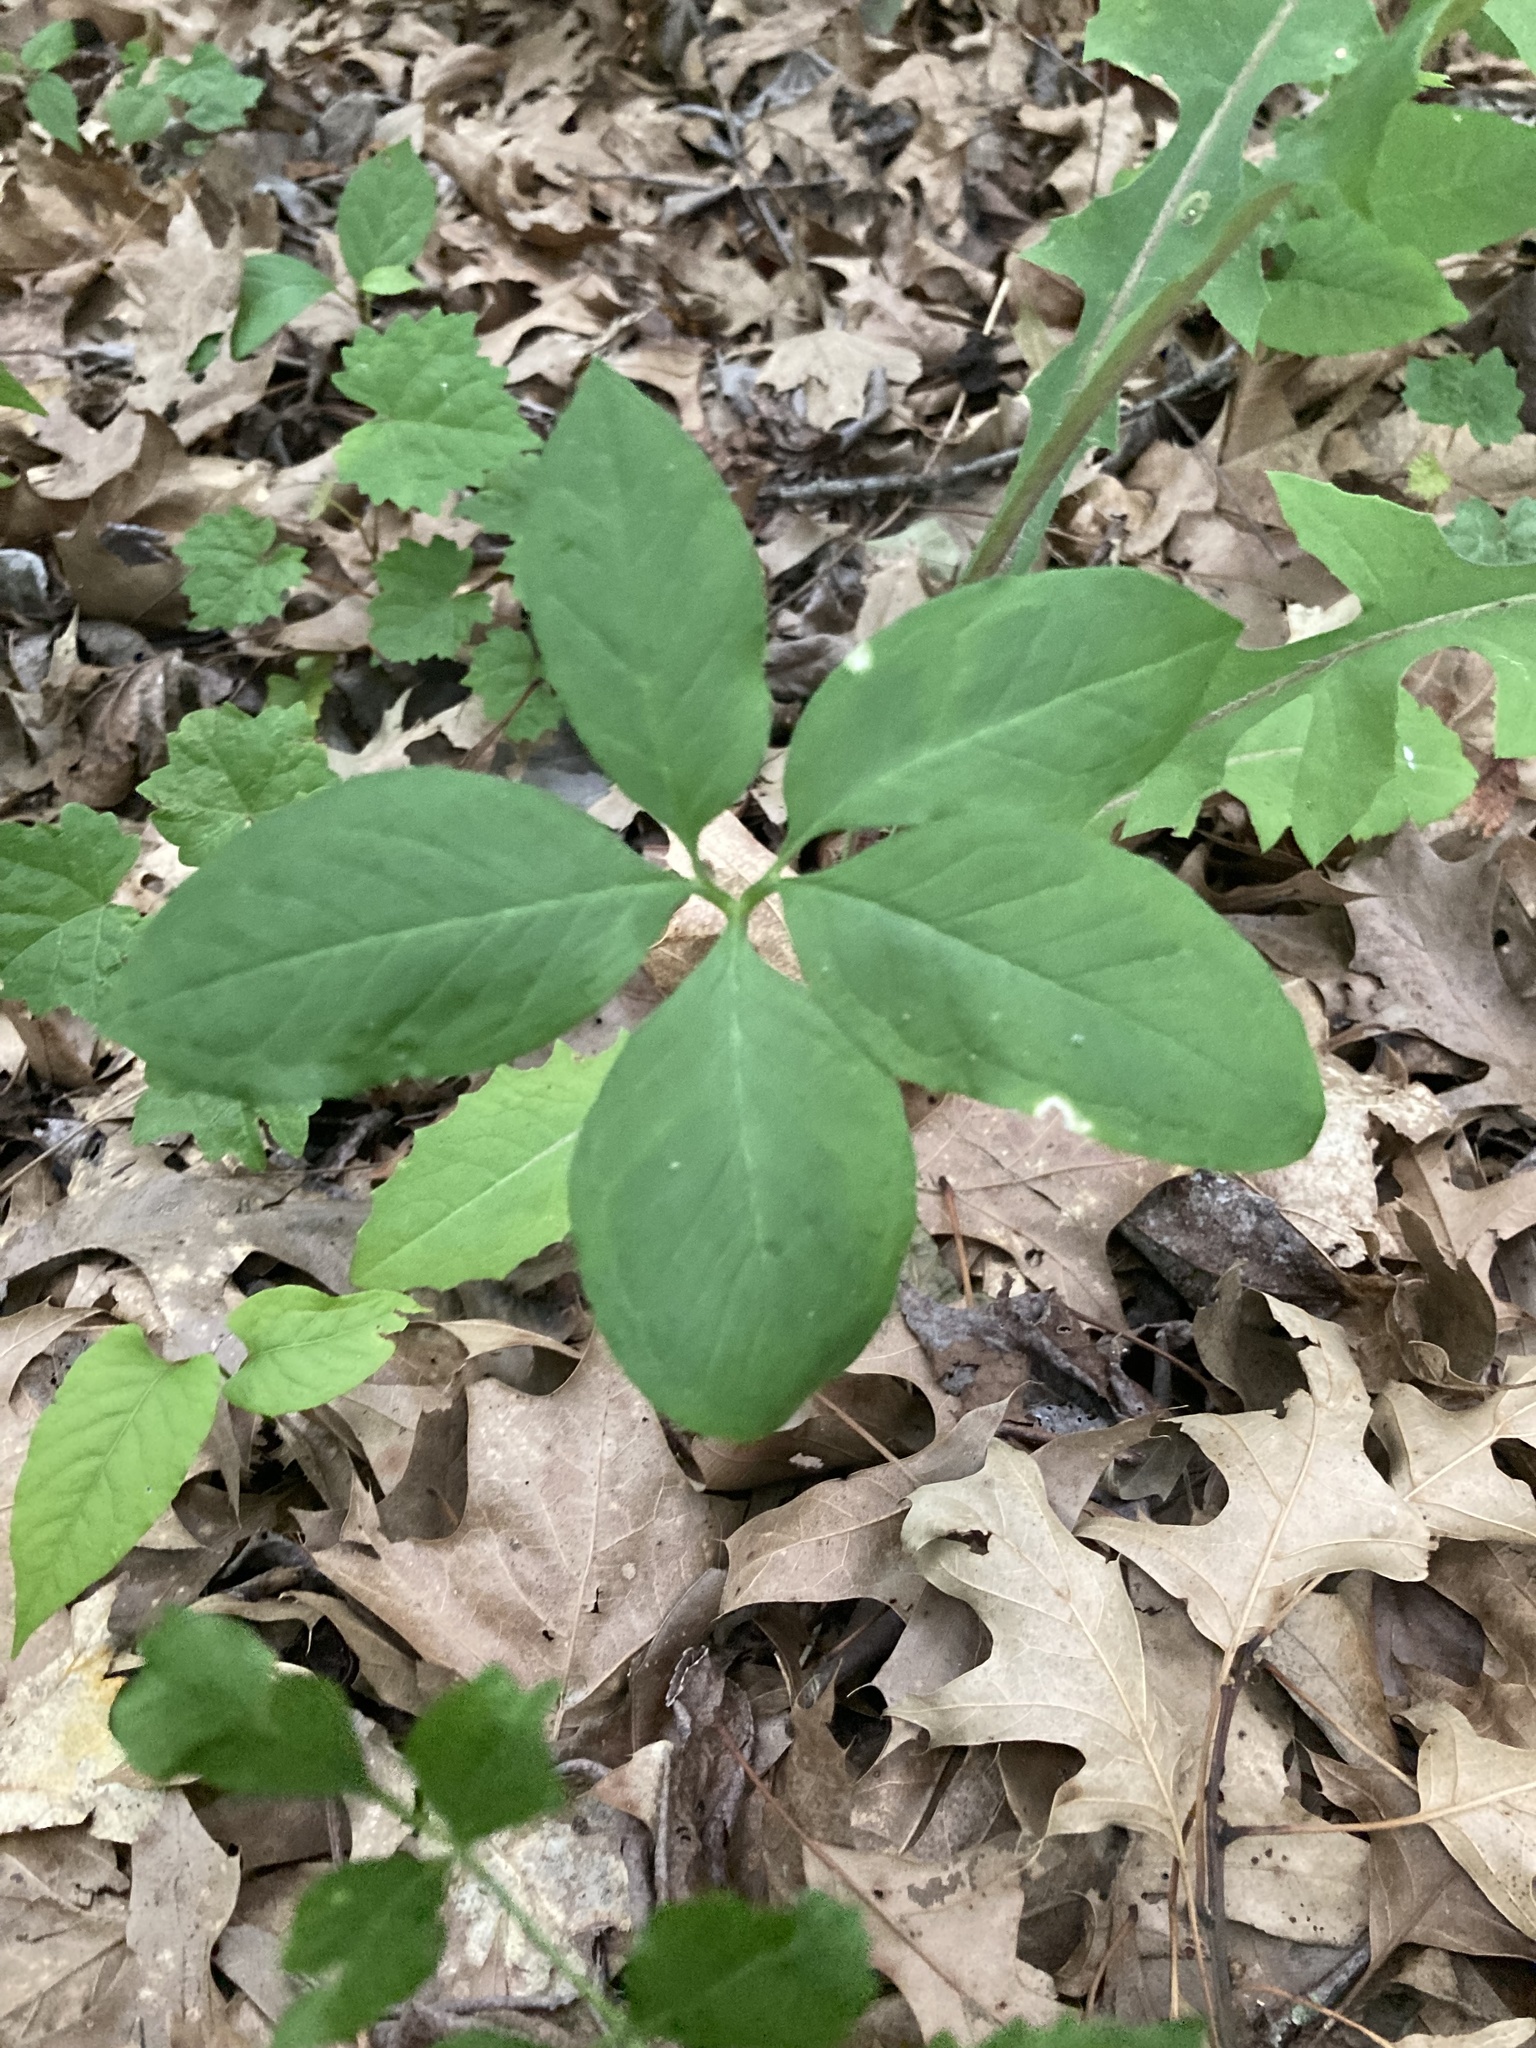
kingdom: Plantae
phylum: Tracheophyta
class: Liliopsida
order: Alismatales
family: Araceae
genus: Arisaema
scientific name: Arisaema dracontium
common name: Dragon-arum
